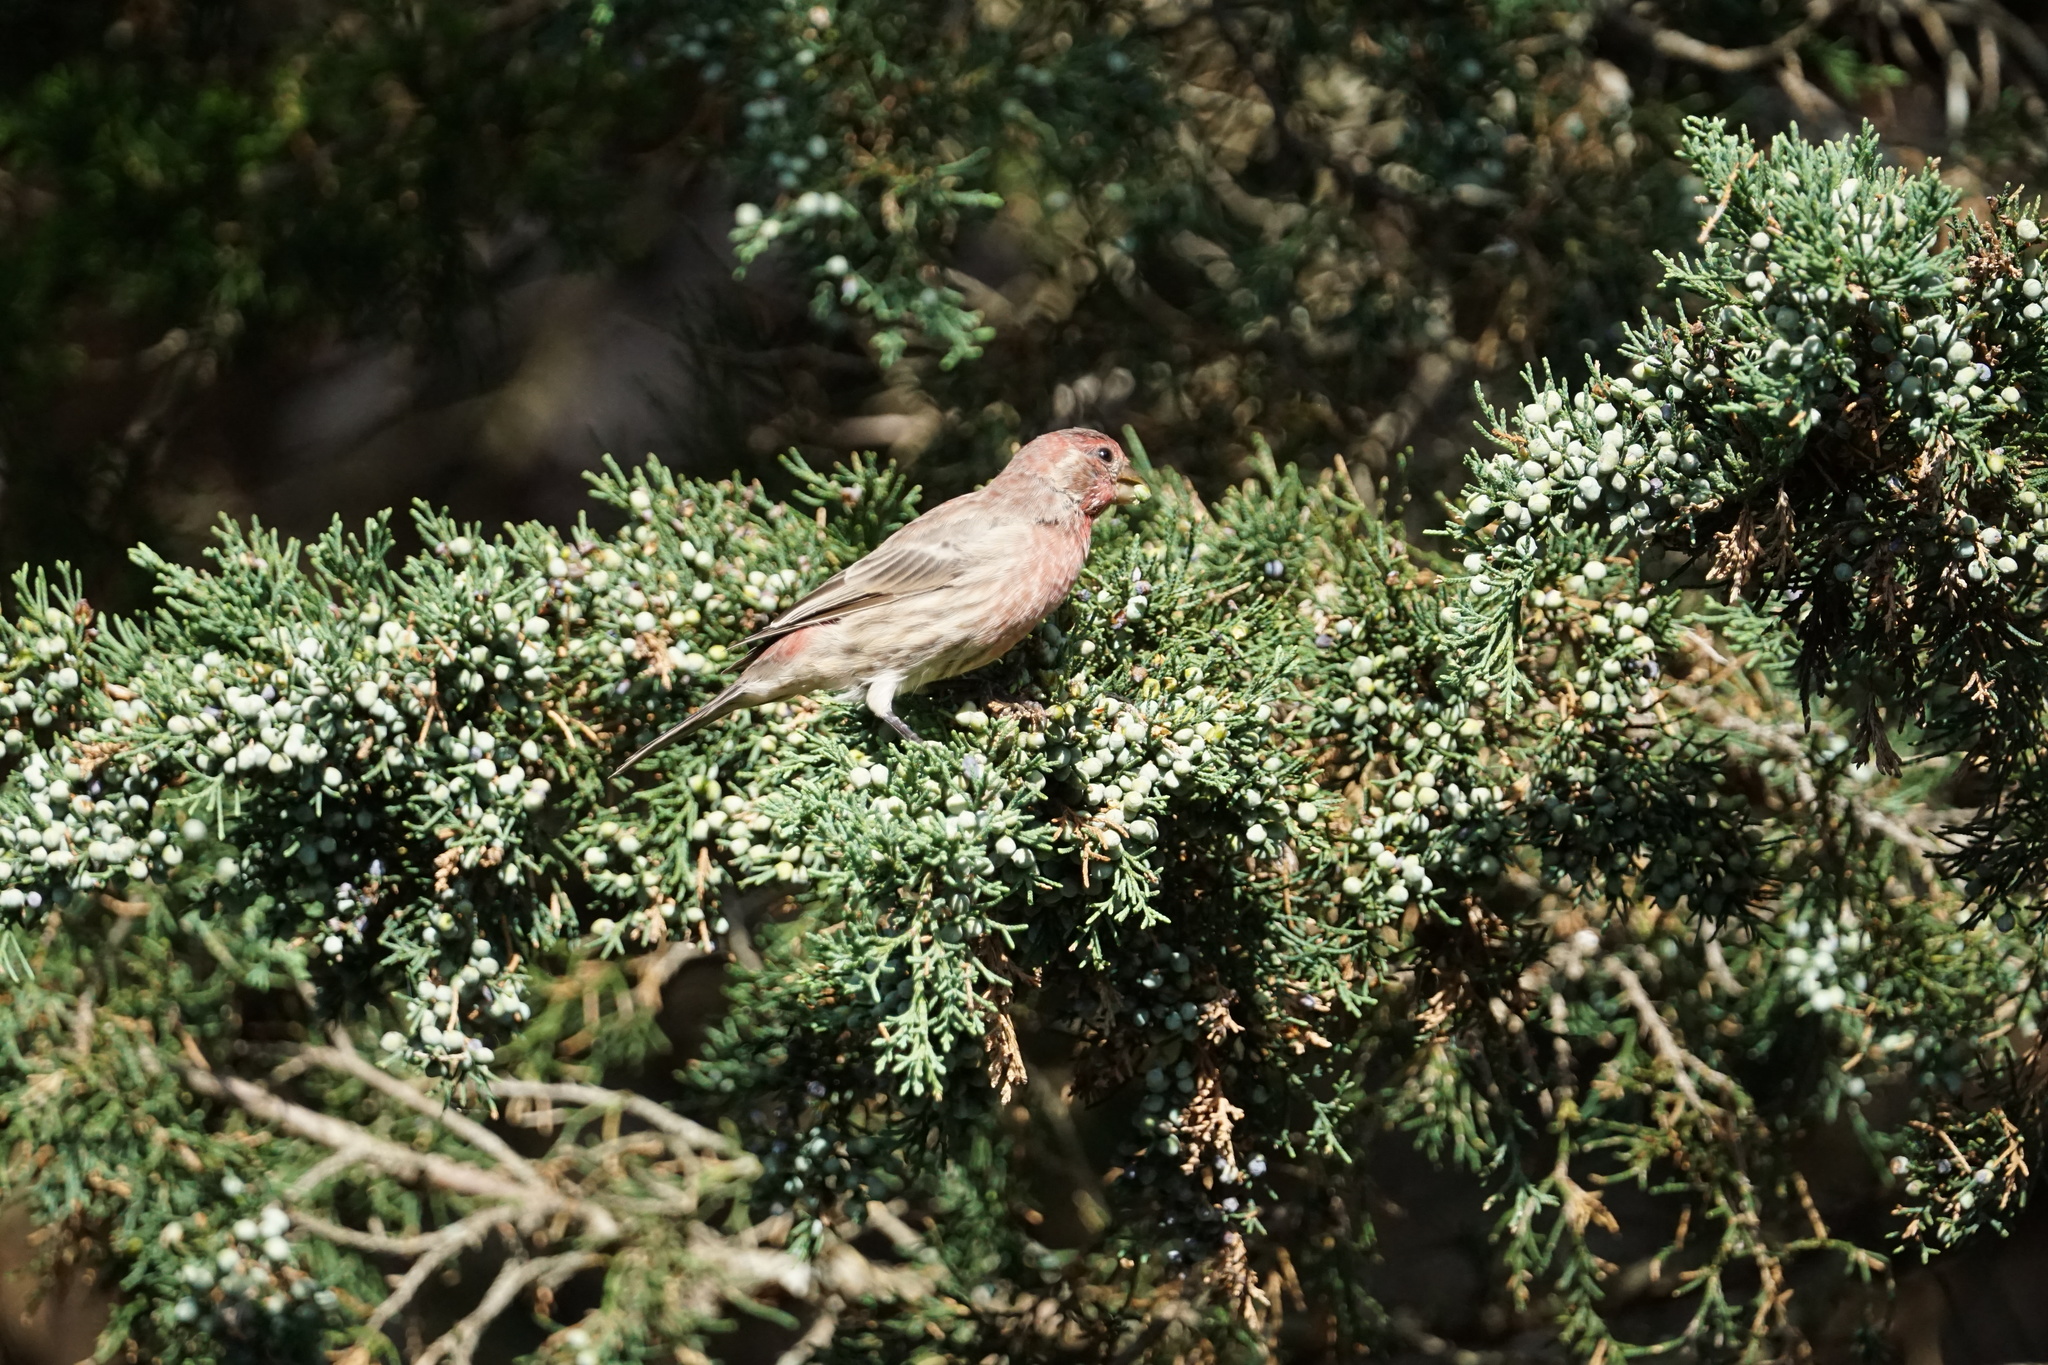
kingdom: Animalia
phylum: Chordata
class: Aves
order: Passeriformes
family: Fringillidae
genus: Haemorhous
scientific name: Haemorhous mexicanus
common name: House finch
